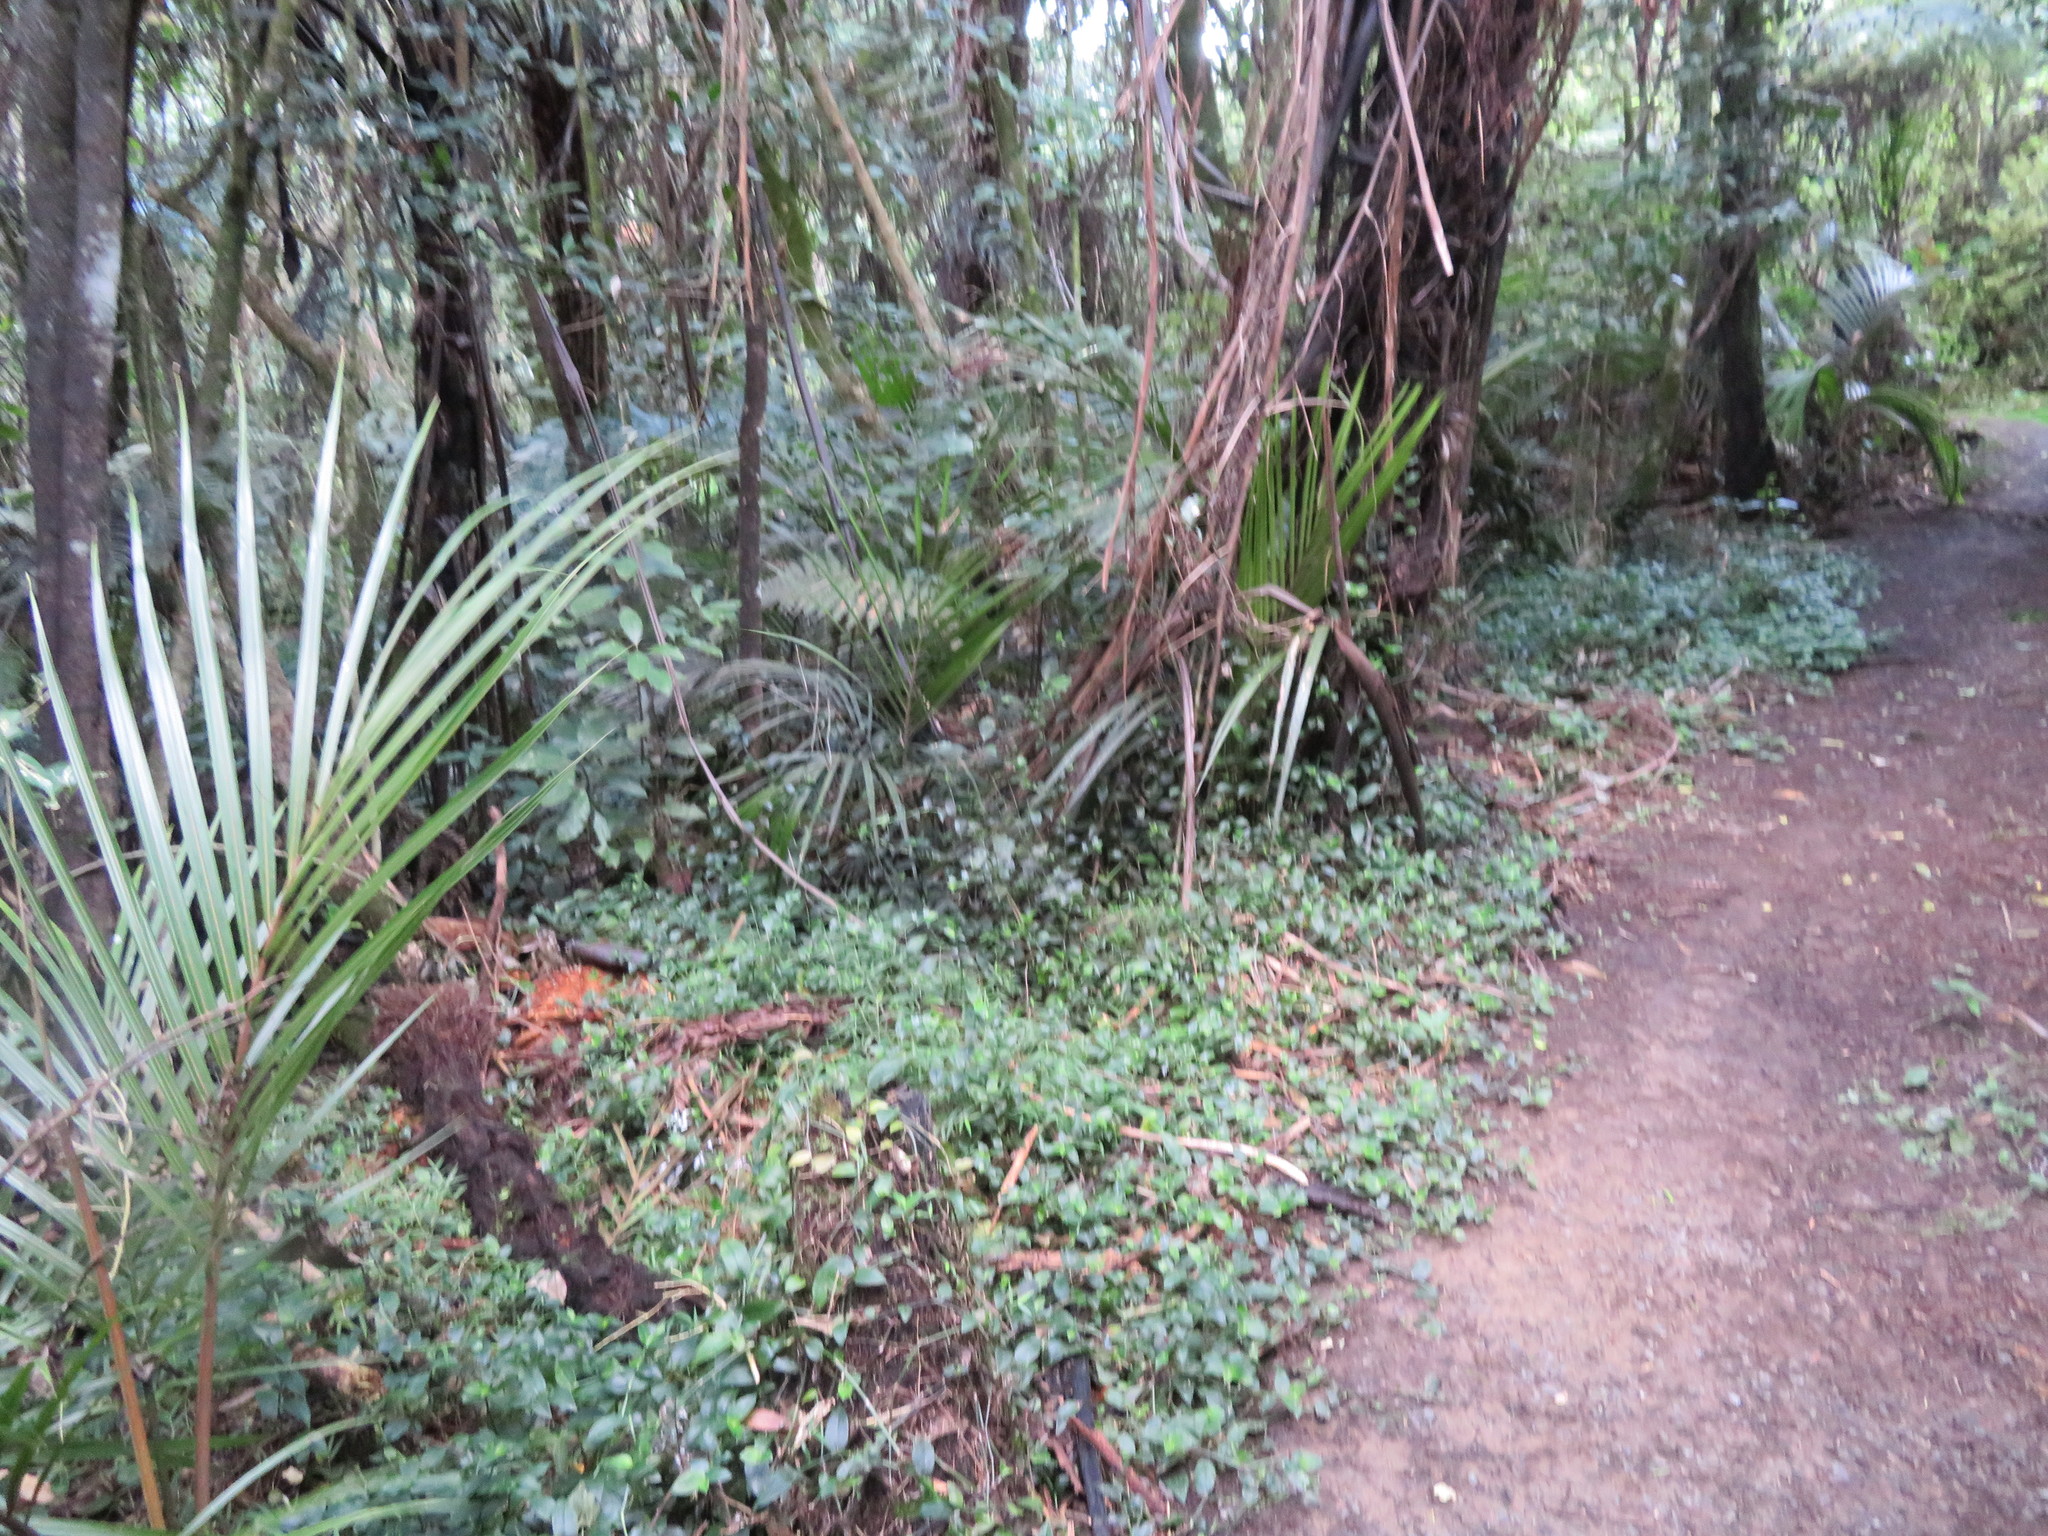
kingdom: Plantae
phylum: Tracheophyta
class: Liliopsida
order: Poales
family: Poaceae
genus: Oplismenus
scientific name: Oplismenus hirtellus
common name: Basketgrass
